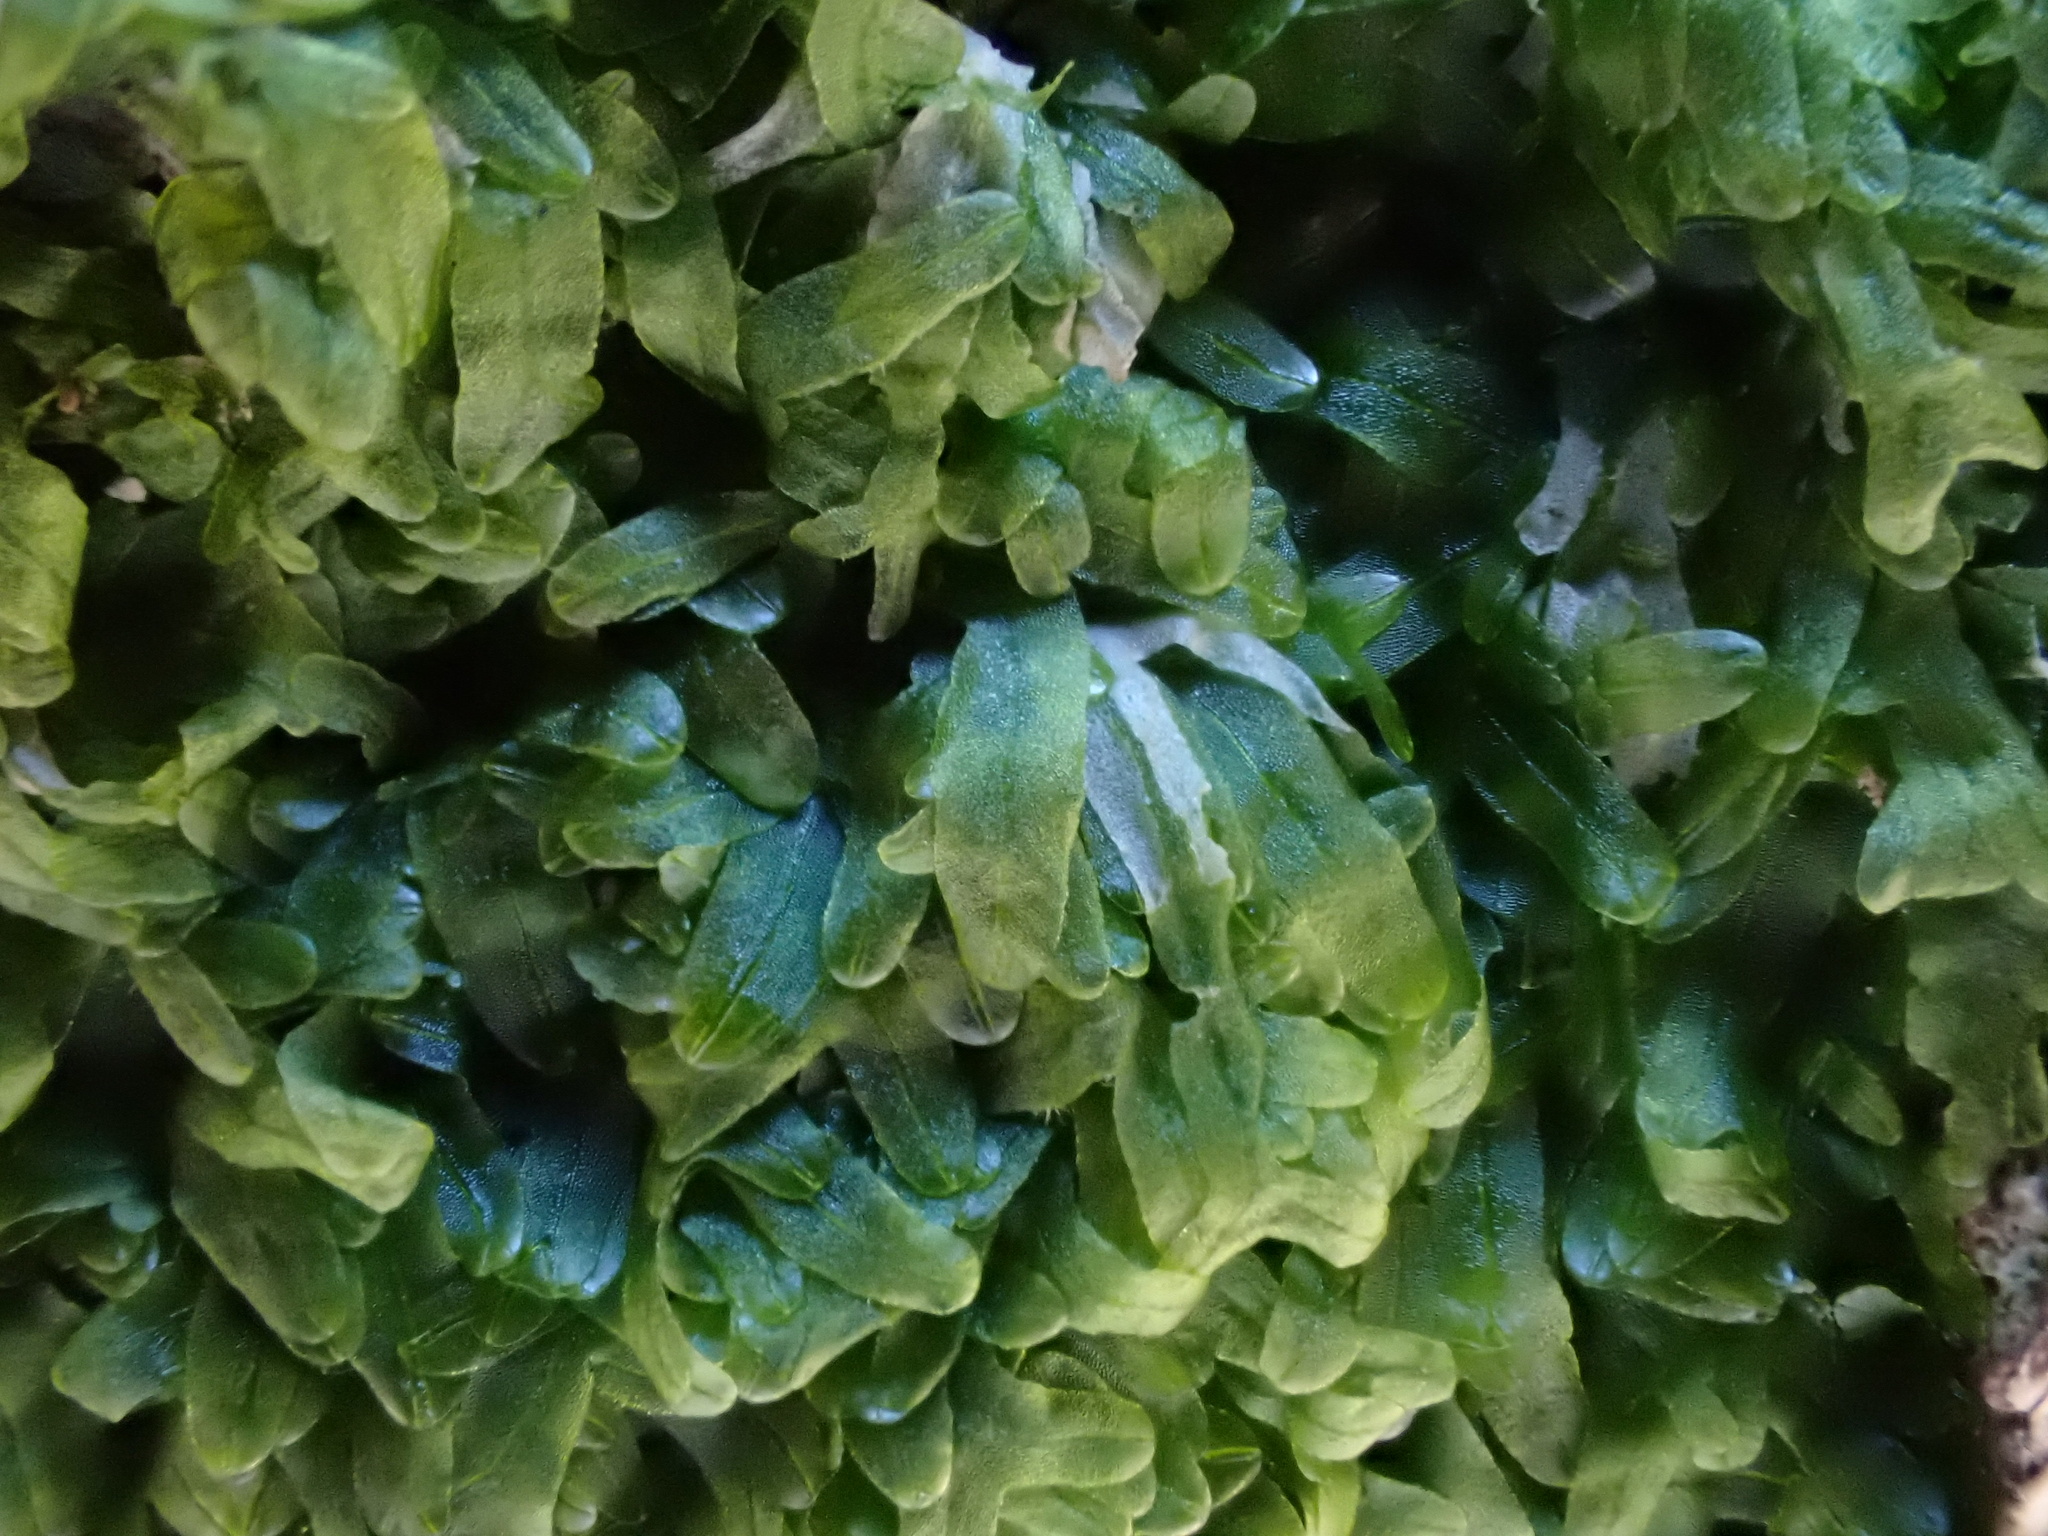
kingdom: Plantae
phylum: Marchantiophyta
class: Jungermanniopsida
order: Metzgeriales
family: Metzgeriaceae
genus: Metzgeria
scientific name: Metzgeria furcata
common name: Forked veilwort
